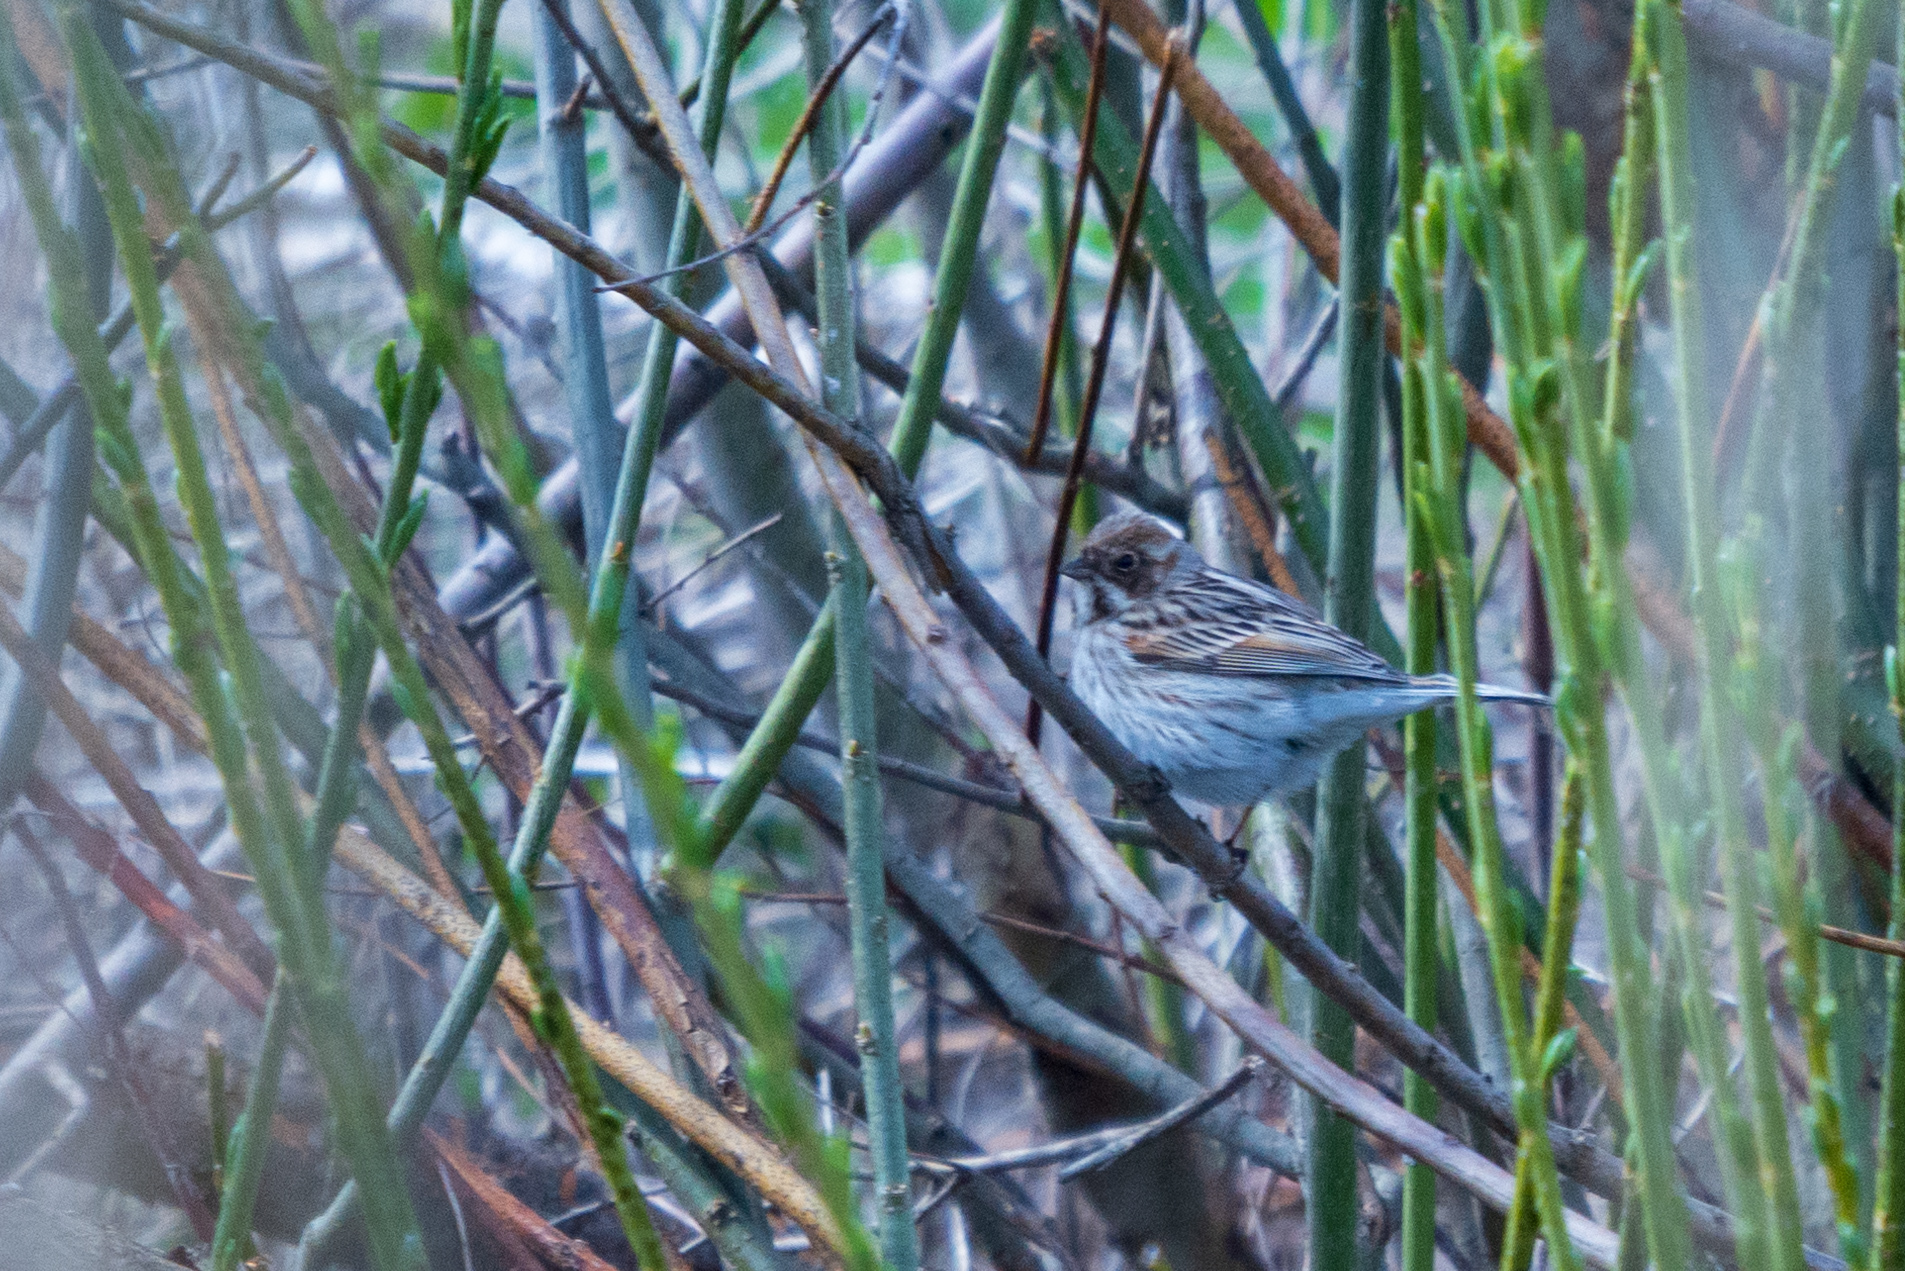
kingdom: Animalia
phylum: Chordata
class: Aves
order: Passeriformes
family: Emberizidae
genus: Emberiza
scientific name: Emberiza schoeniclus
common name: Reed bunting
